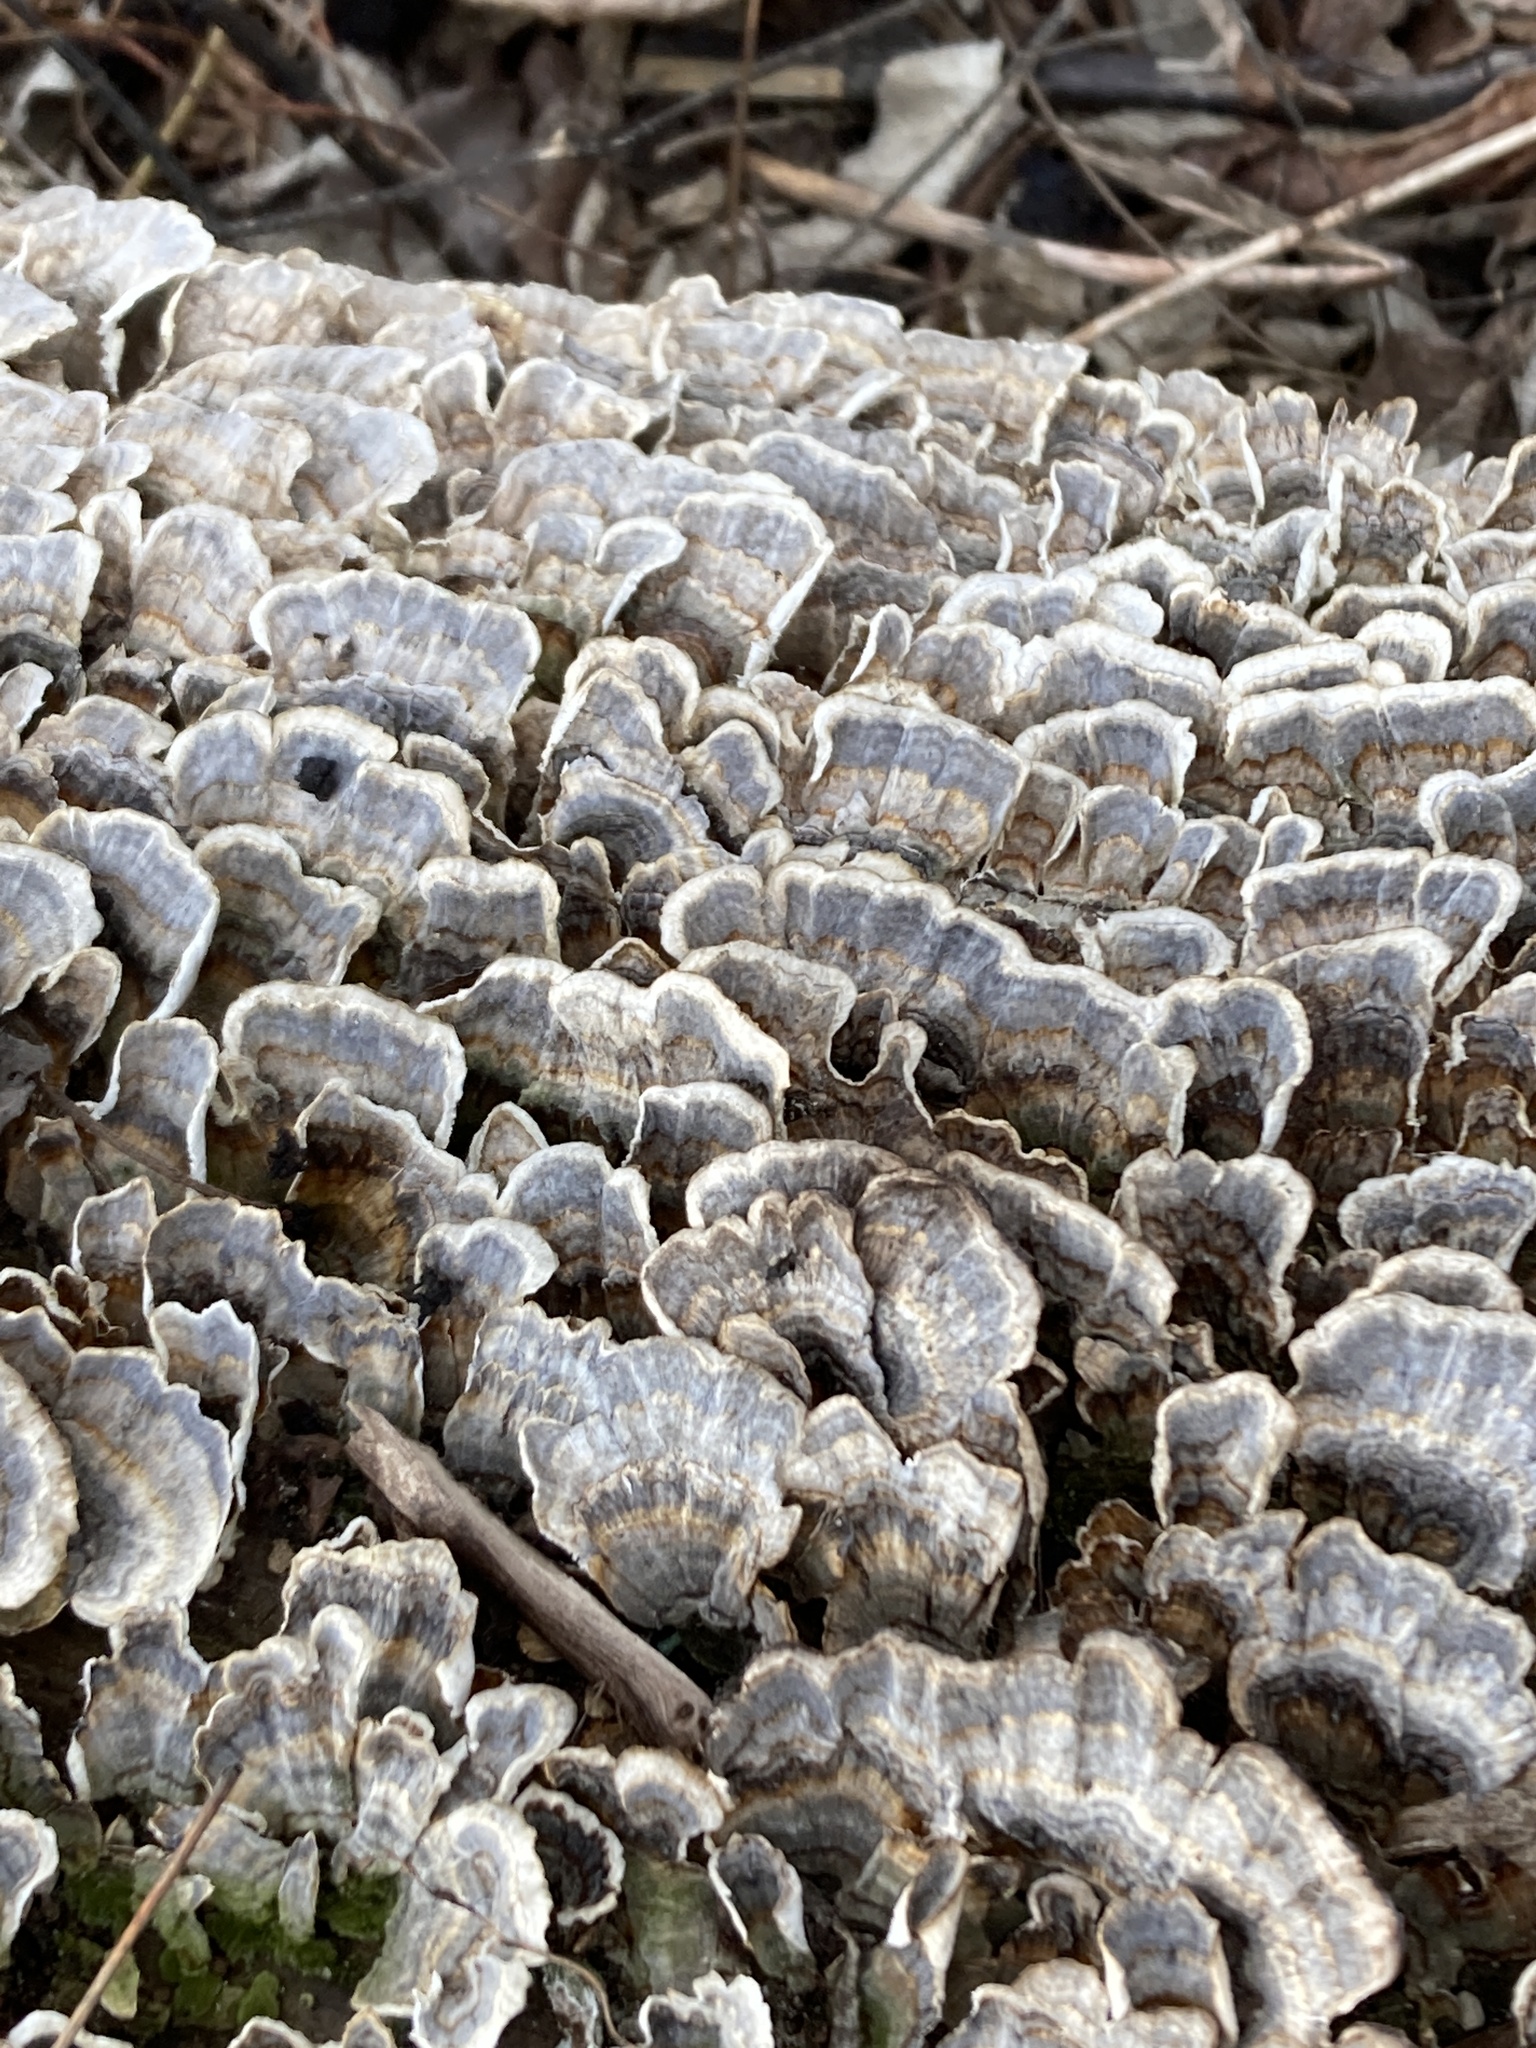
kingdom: Fungi
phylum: Basidiomycota
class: Agaricomycetes
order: Polyporales
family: Polyporaceae
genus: Trametes
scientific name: Trametes versicolor
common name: Turkeytail
